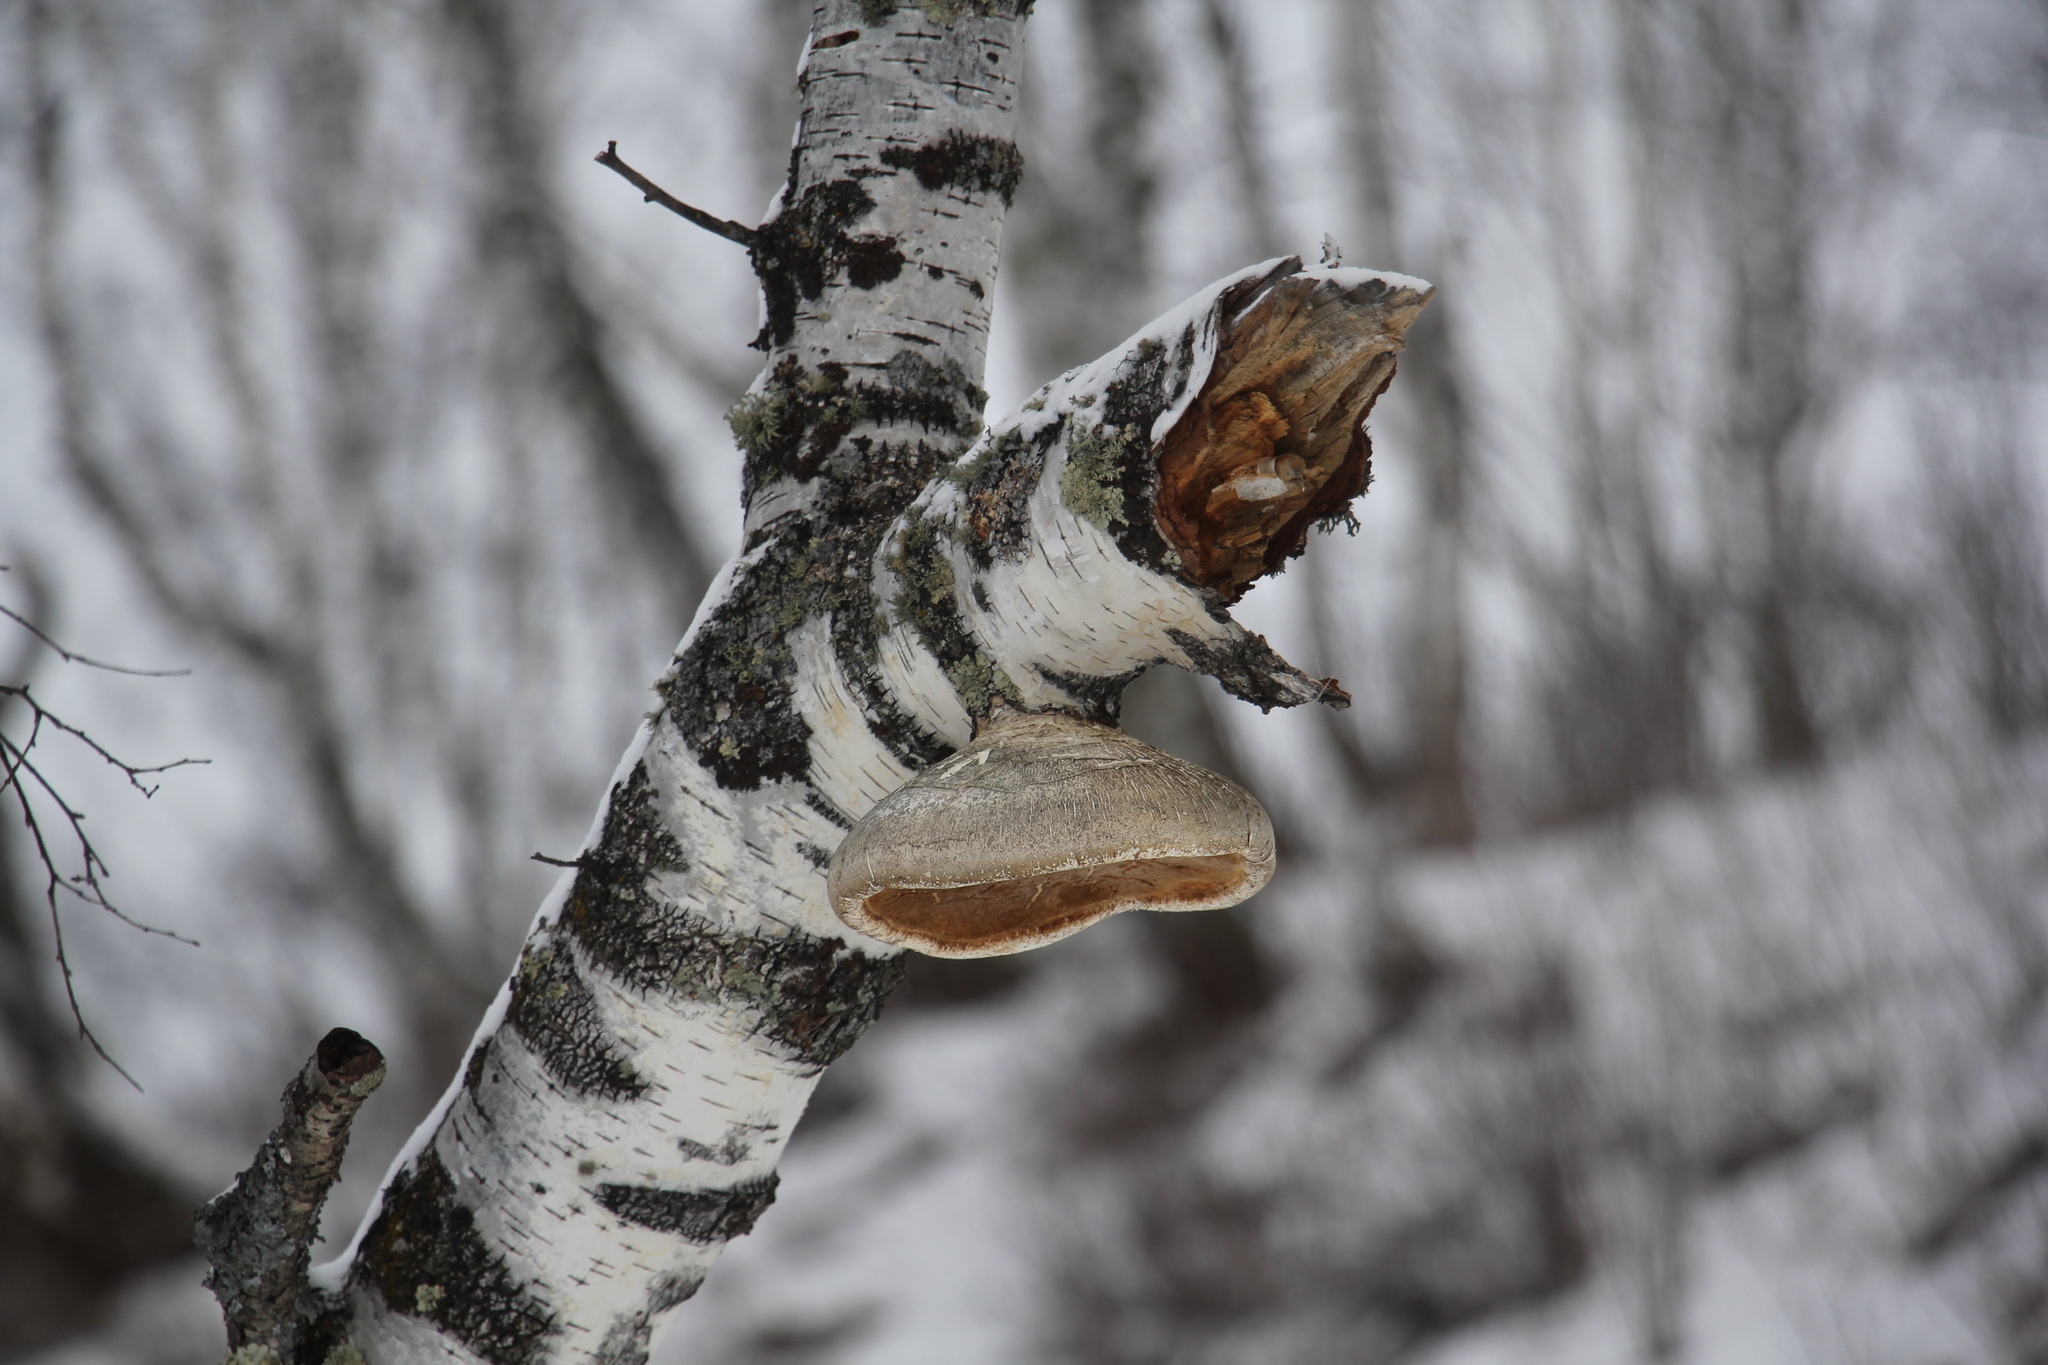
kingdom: Fungi
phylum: Basidiomycota
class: Agaricomycetes
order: Polyporales
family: Fomitopsidaceae
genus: Fomitopsis
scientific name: Fomitopsis betulina
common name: Birch polypore
